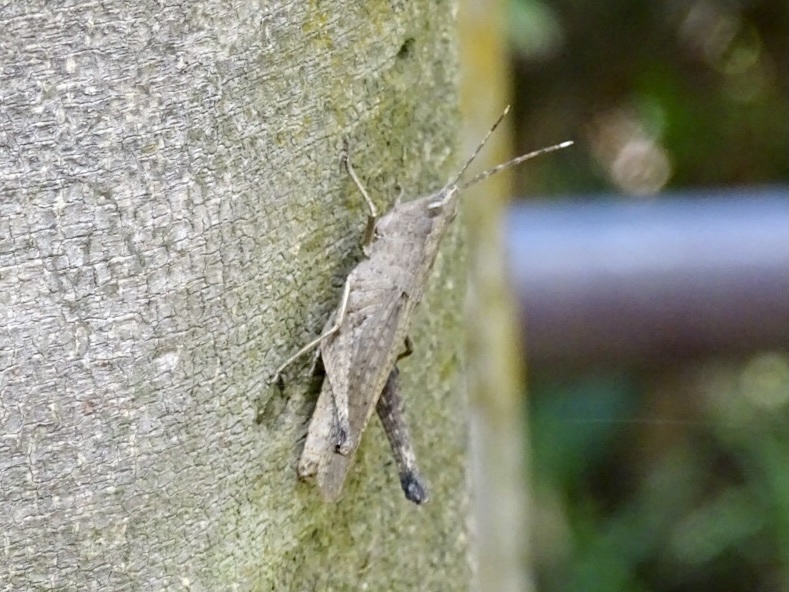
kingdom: Animalia
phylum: Arthropoda
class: Insecta
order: Orthoptera
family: Acrididae
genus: Phlaeoba
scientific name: Phlaeoba antennata
